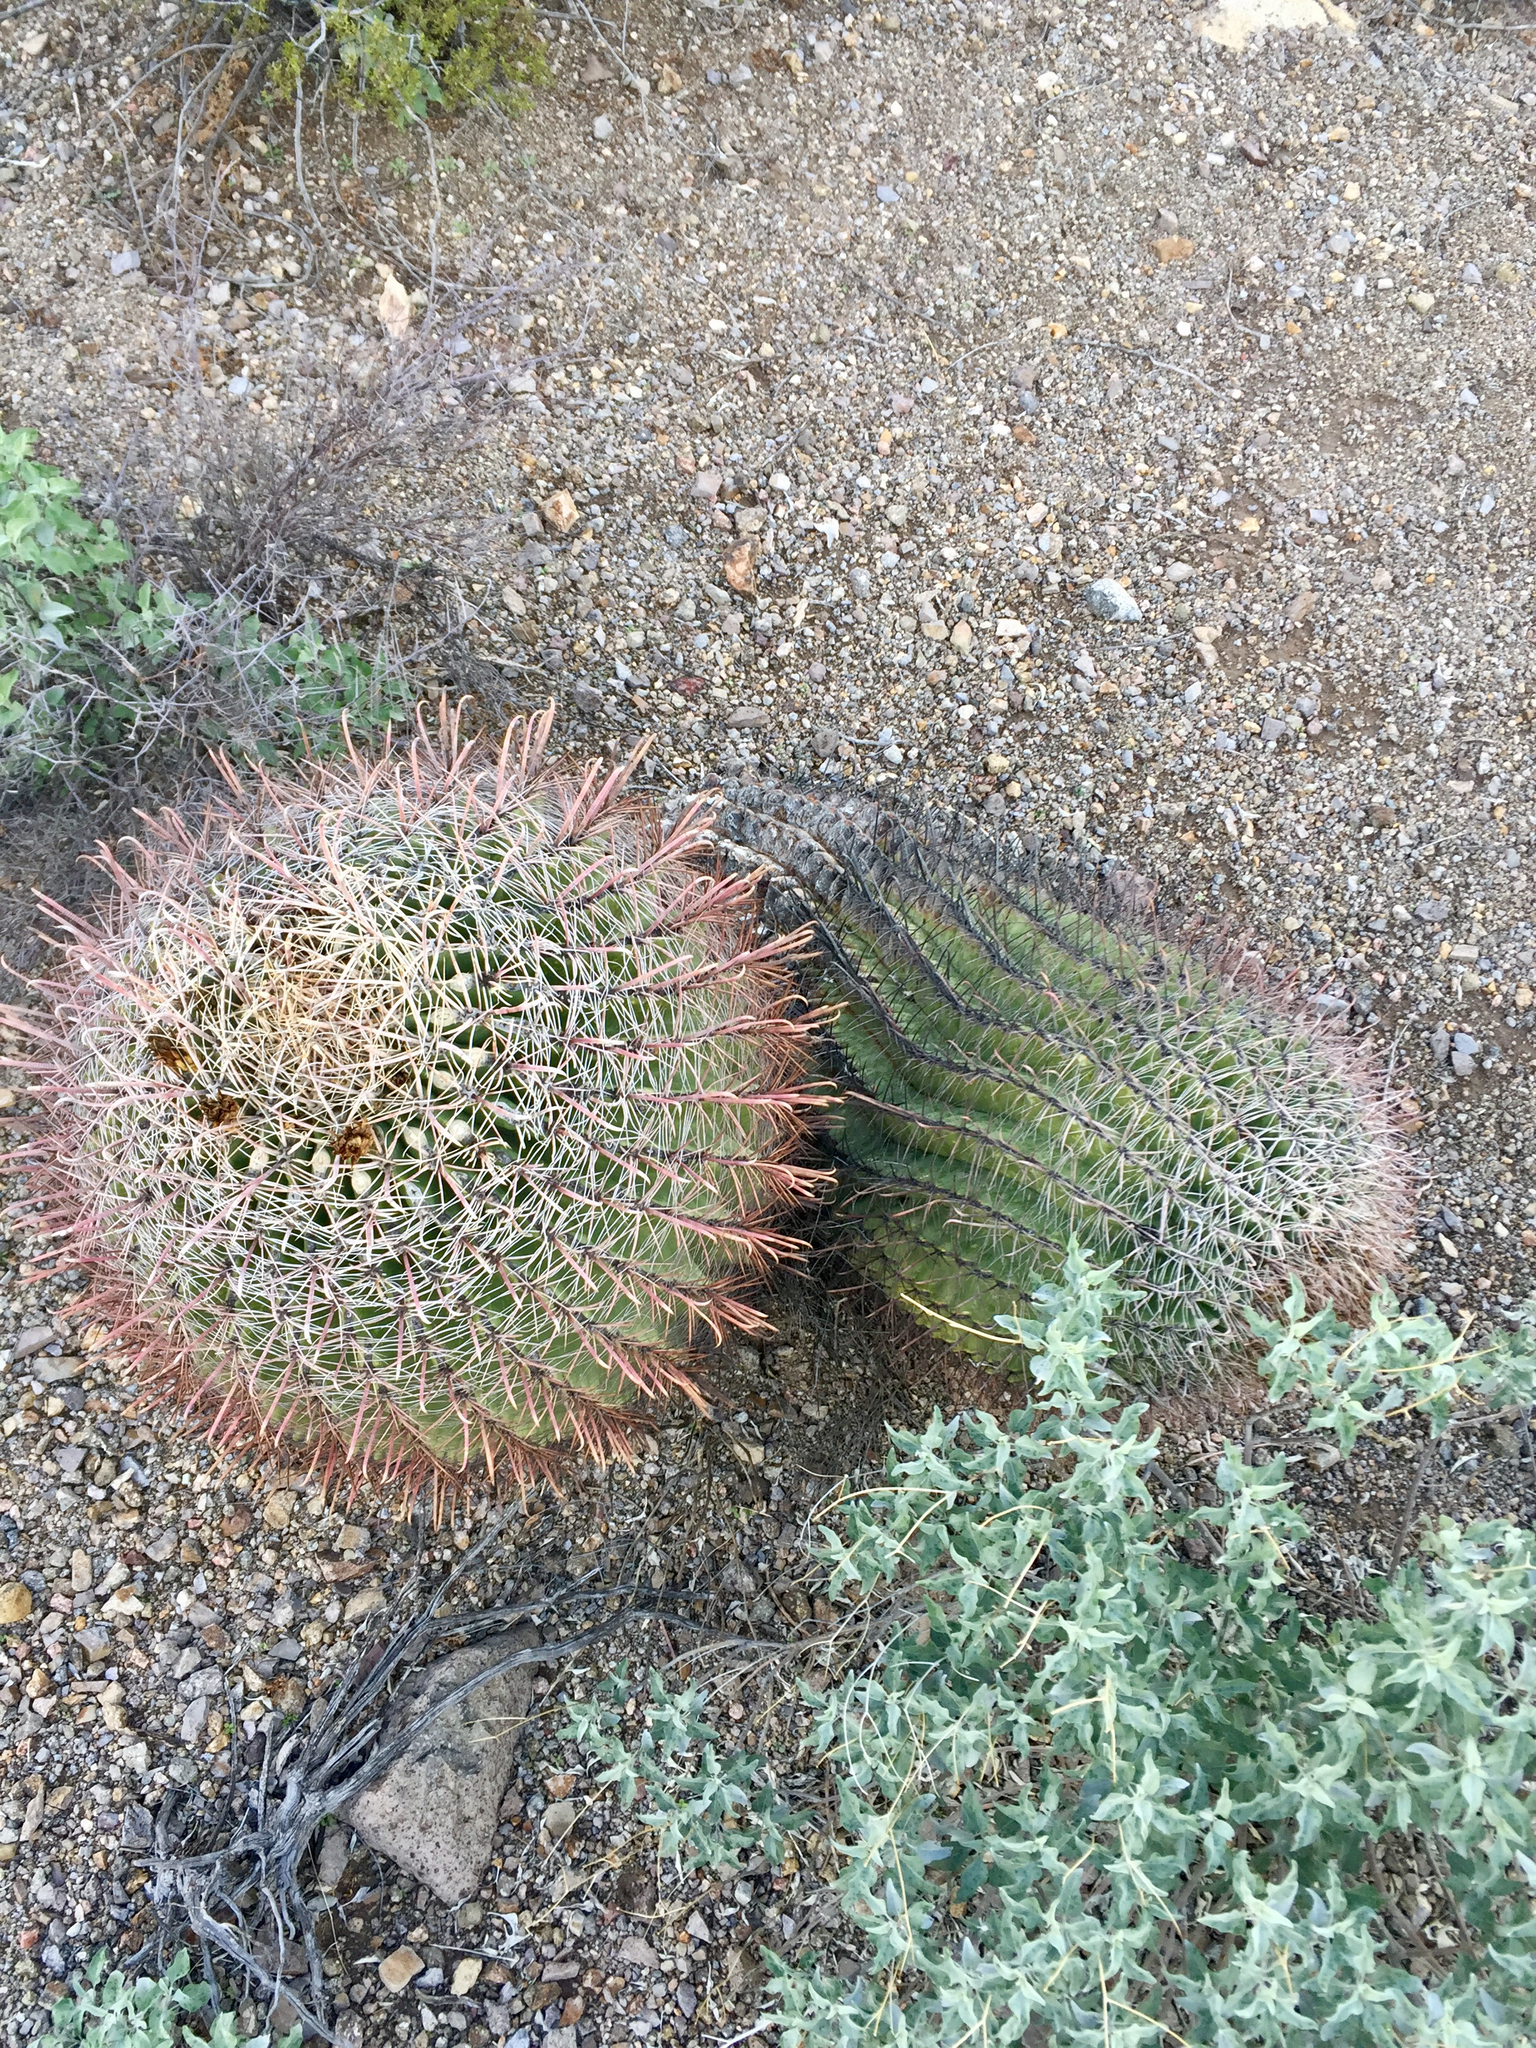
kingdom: Plantae
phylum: Tracheophyta
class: Magnoliopsida
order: Caryophyllales
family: Cactaceae
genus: Ferocactus
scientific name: Ferocactus wislizeni
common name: Candy barrel cactus
